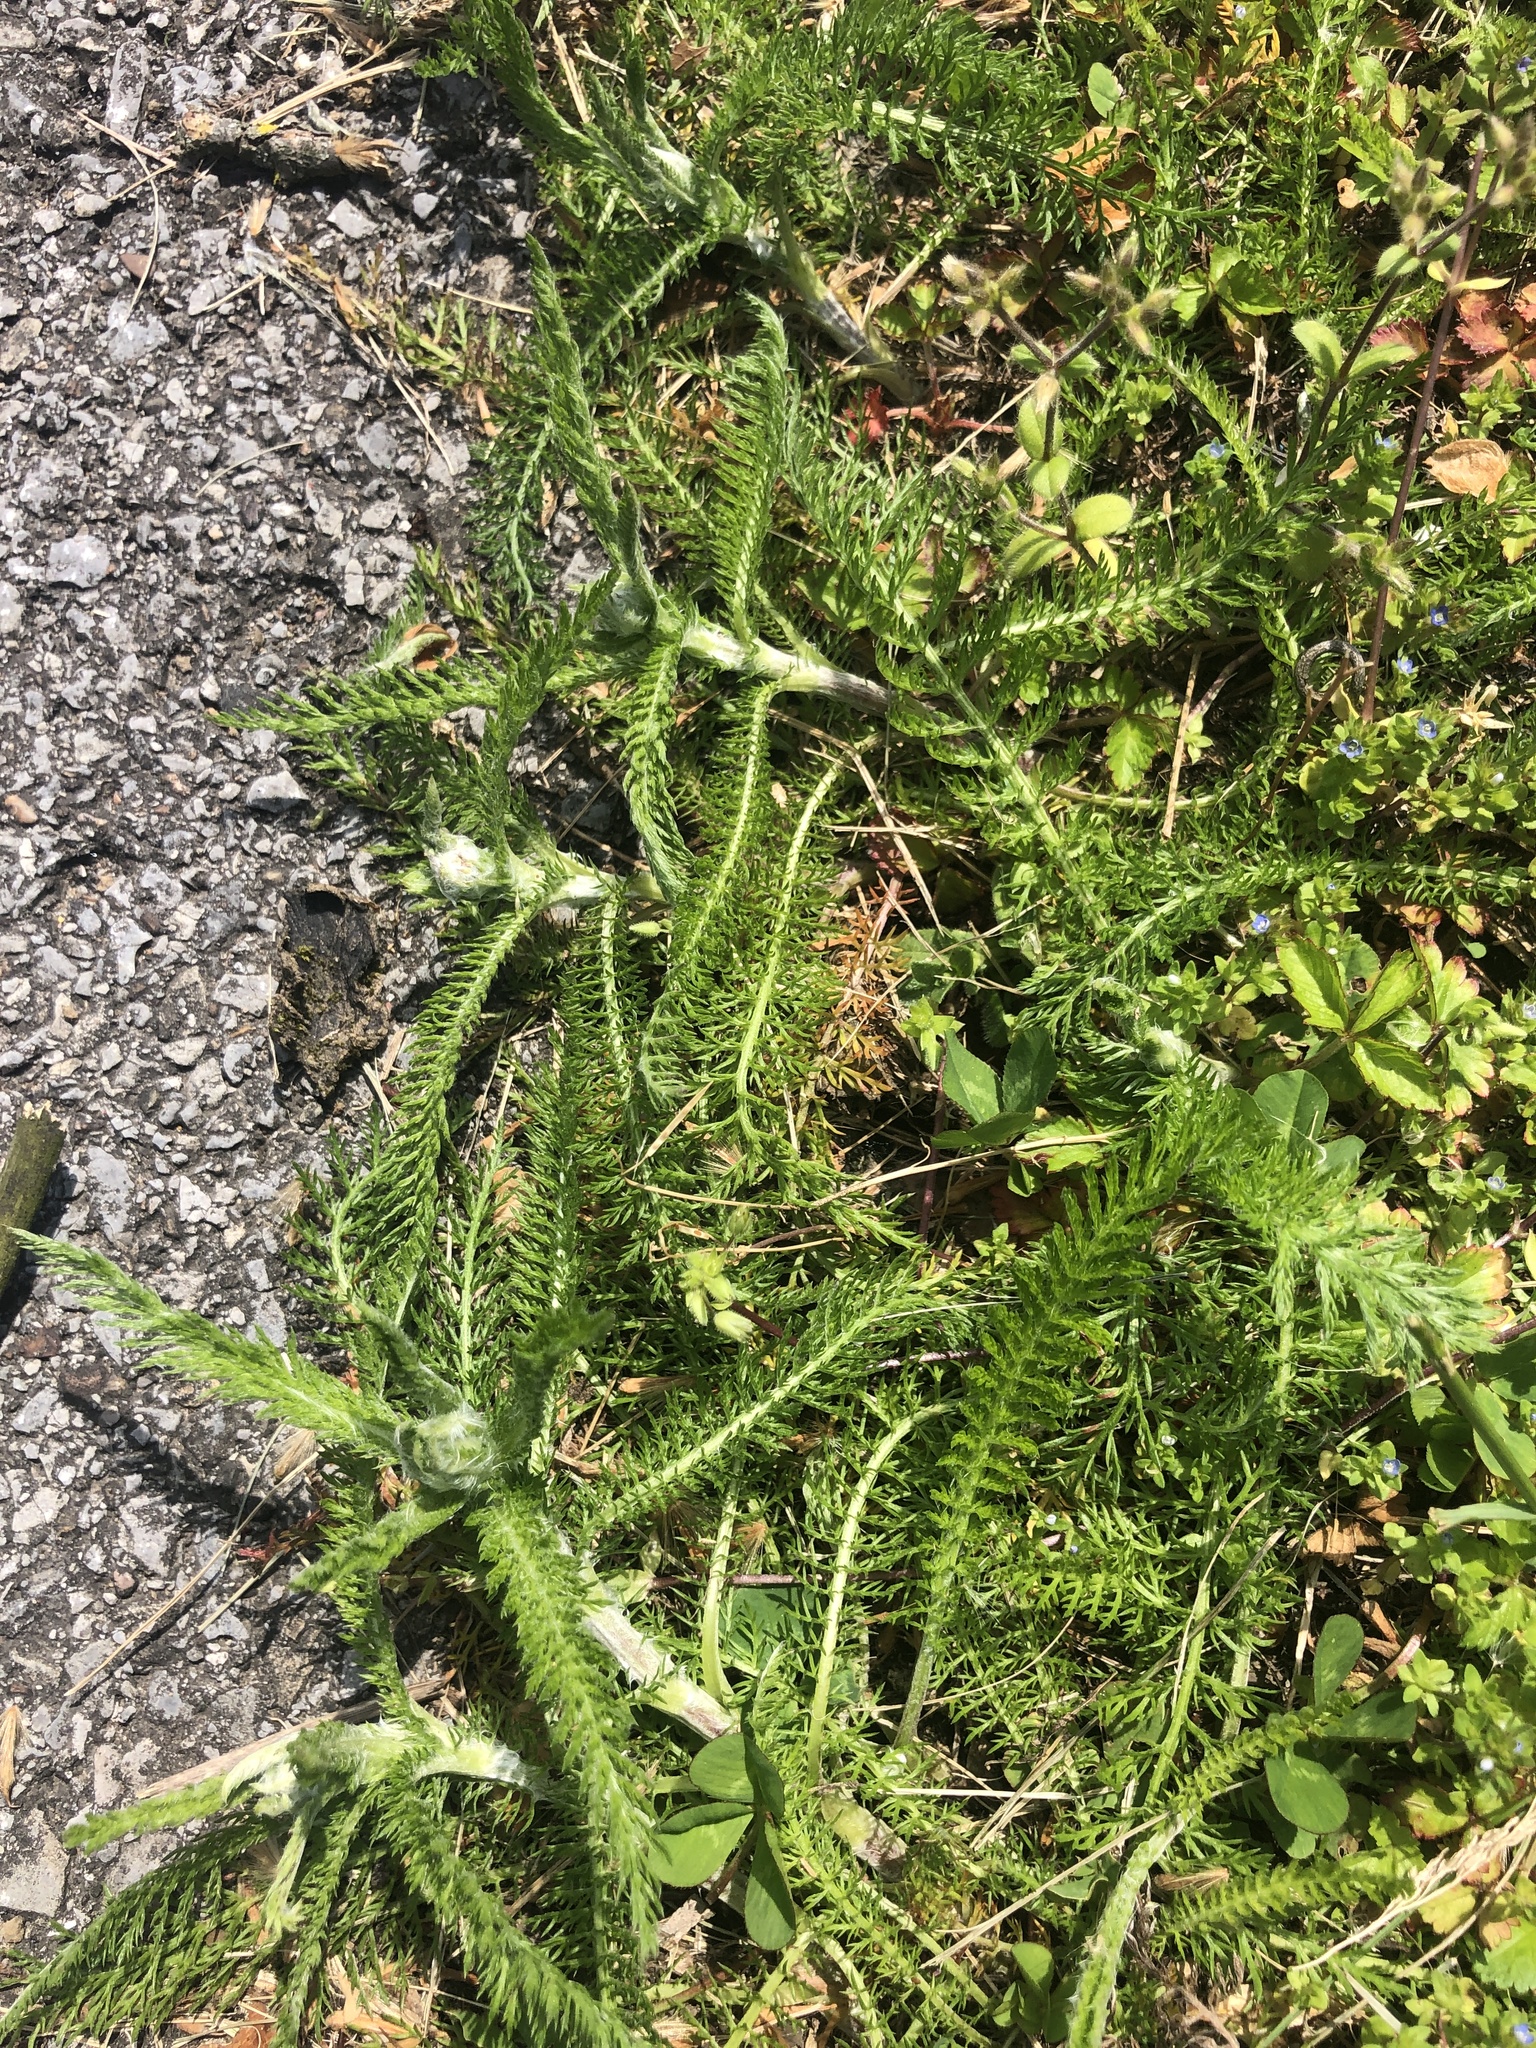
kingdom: Plantae
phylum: Tracheophyta
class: Magnoliopsida
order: Asterales
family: Asteraceae
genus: Achillea
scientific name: Achillea millefolium
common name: Yarrow
